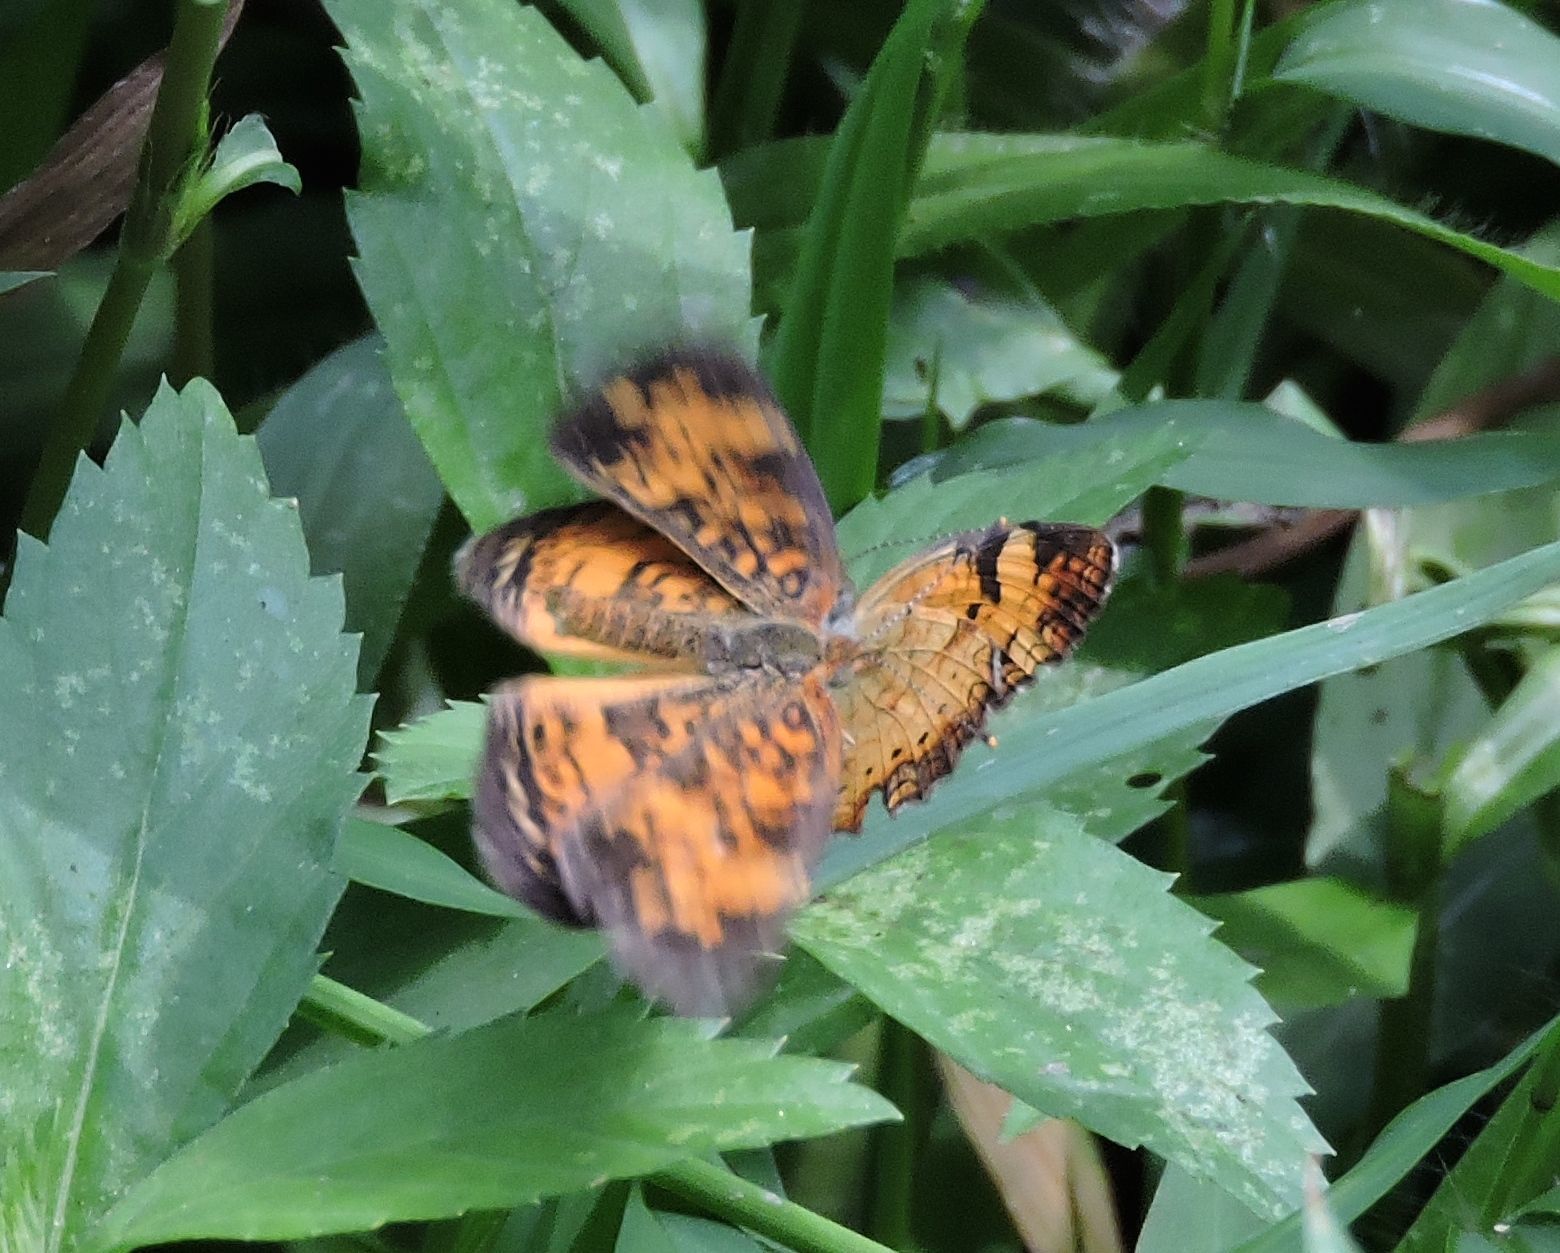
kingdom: Animalia
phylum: Arthropoda
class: Insecta
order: Lepidoptera
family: Nymphalidae
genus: Phyciodes
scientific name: Phyciodes tharos
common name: Pearl crescent
